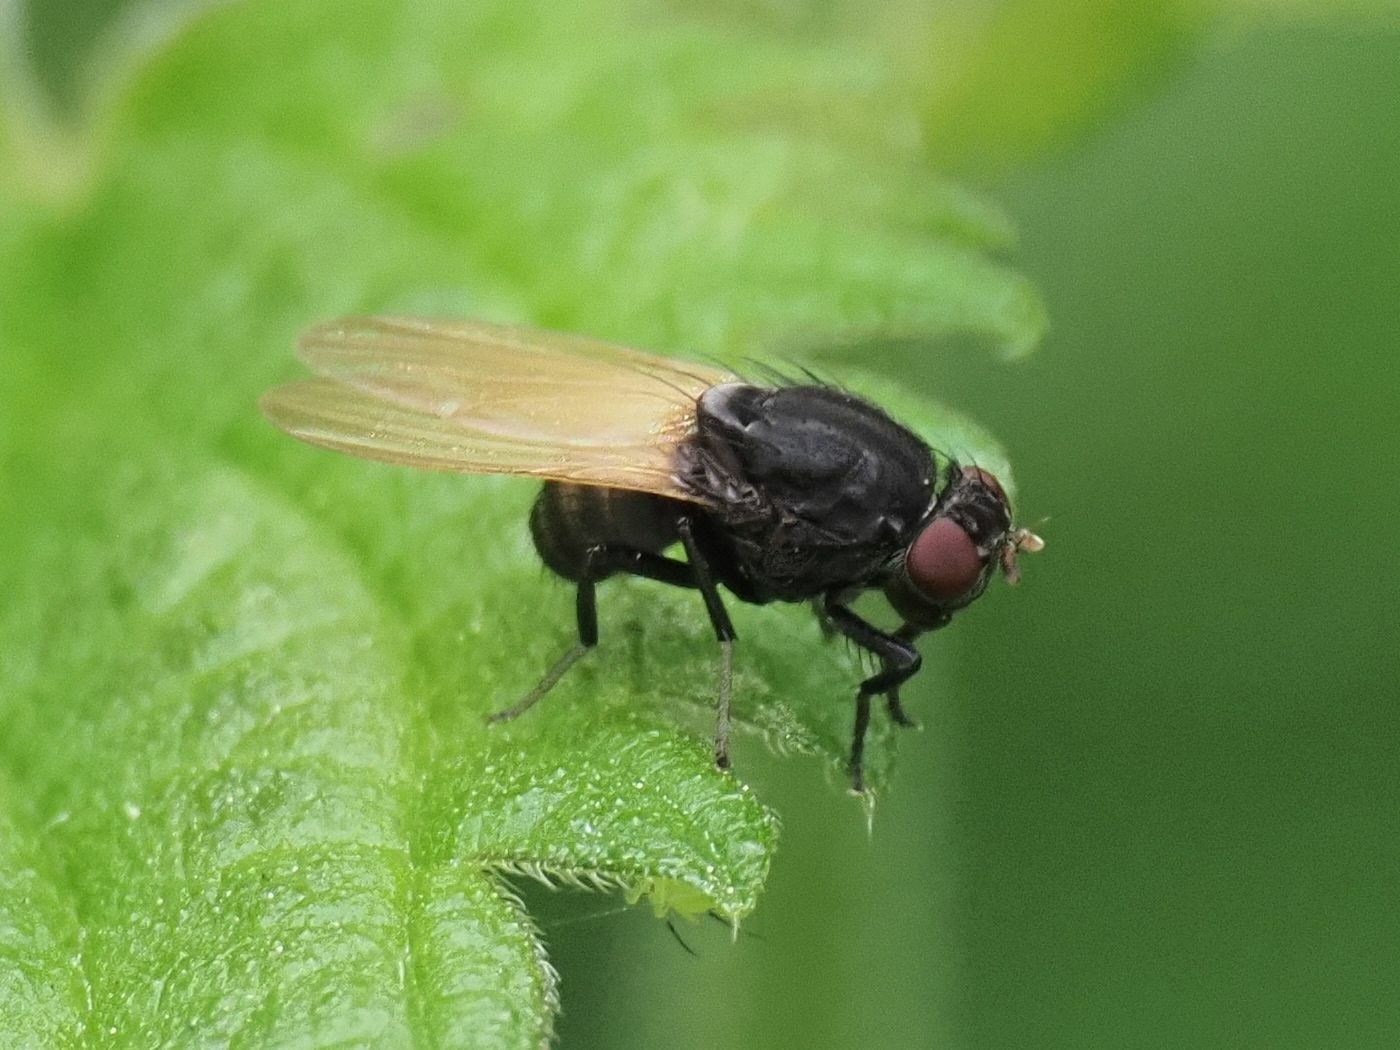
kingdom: Animalia
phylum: Arthropoda
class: Insecta
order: Diptera
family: Lauxaniidae
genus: Minettia
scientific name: Minettia longipennis
